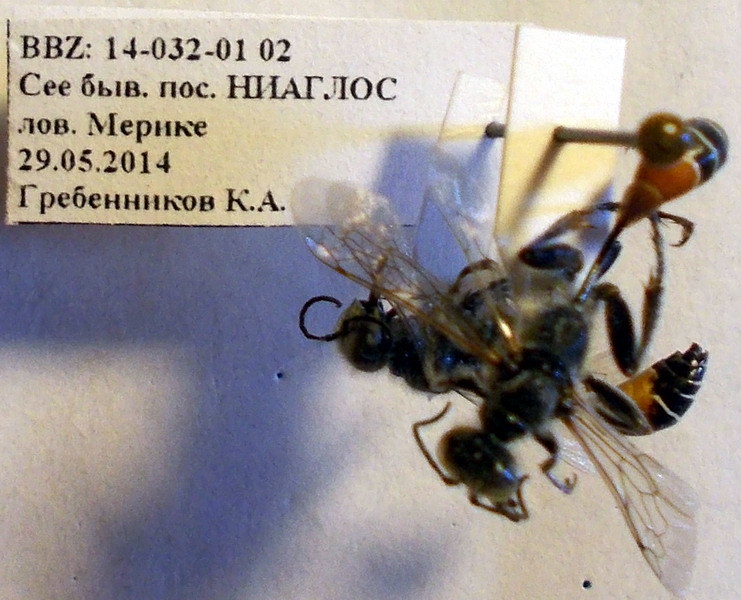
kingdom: Animalia
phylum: Arthropoda
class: Insecta
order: Hymenoptera
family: Sphecidae
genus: Prionyx
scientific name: Prionyx kirbii
